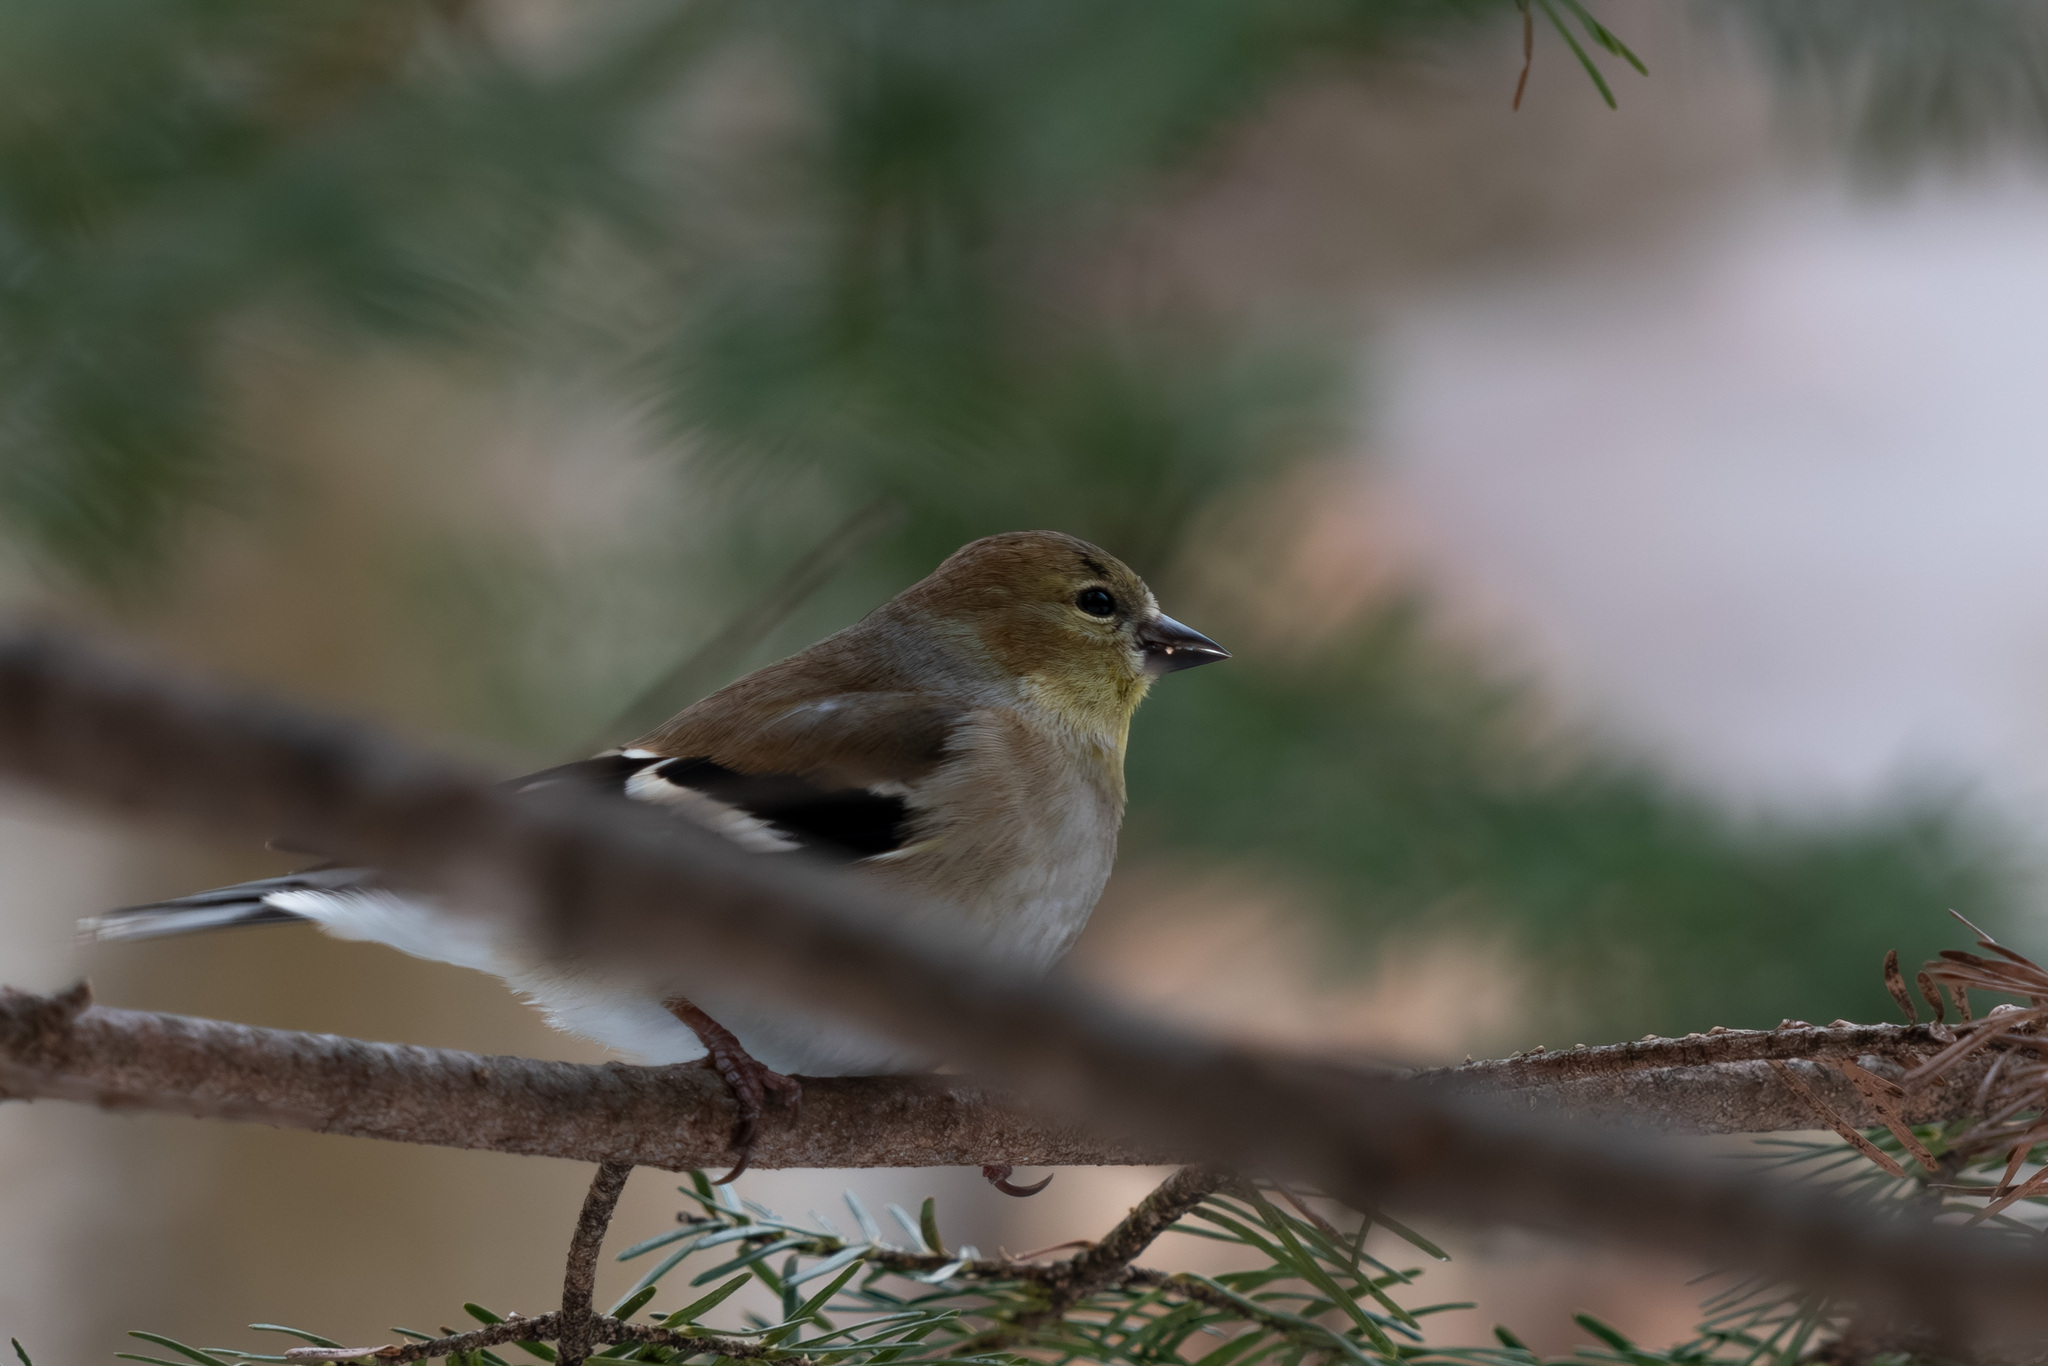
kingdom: Animalia
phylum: Chordata
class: Aves
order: Passeriformes
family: Fringillidae
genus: Spinus
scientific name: Spinus tristis
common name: American goldfinch
